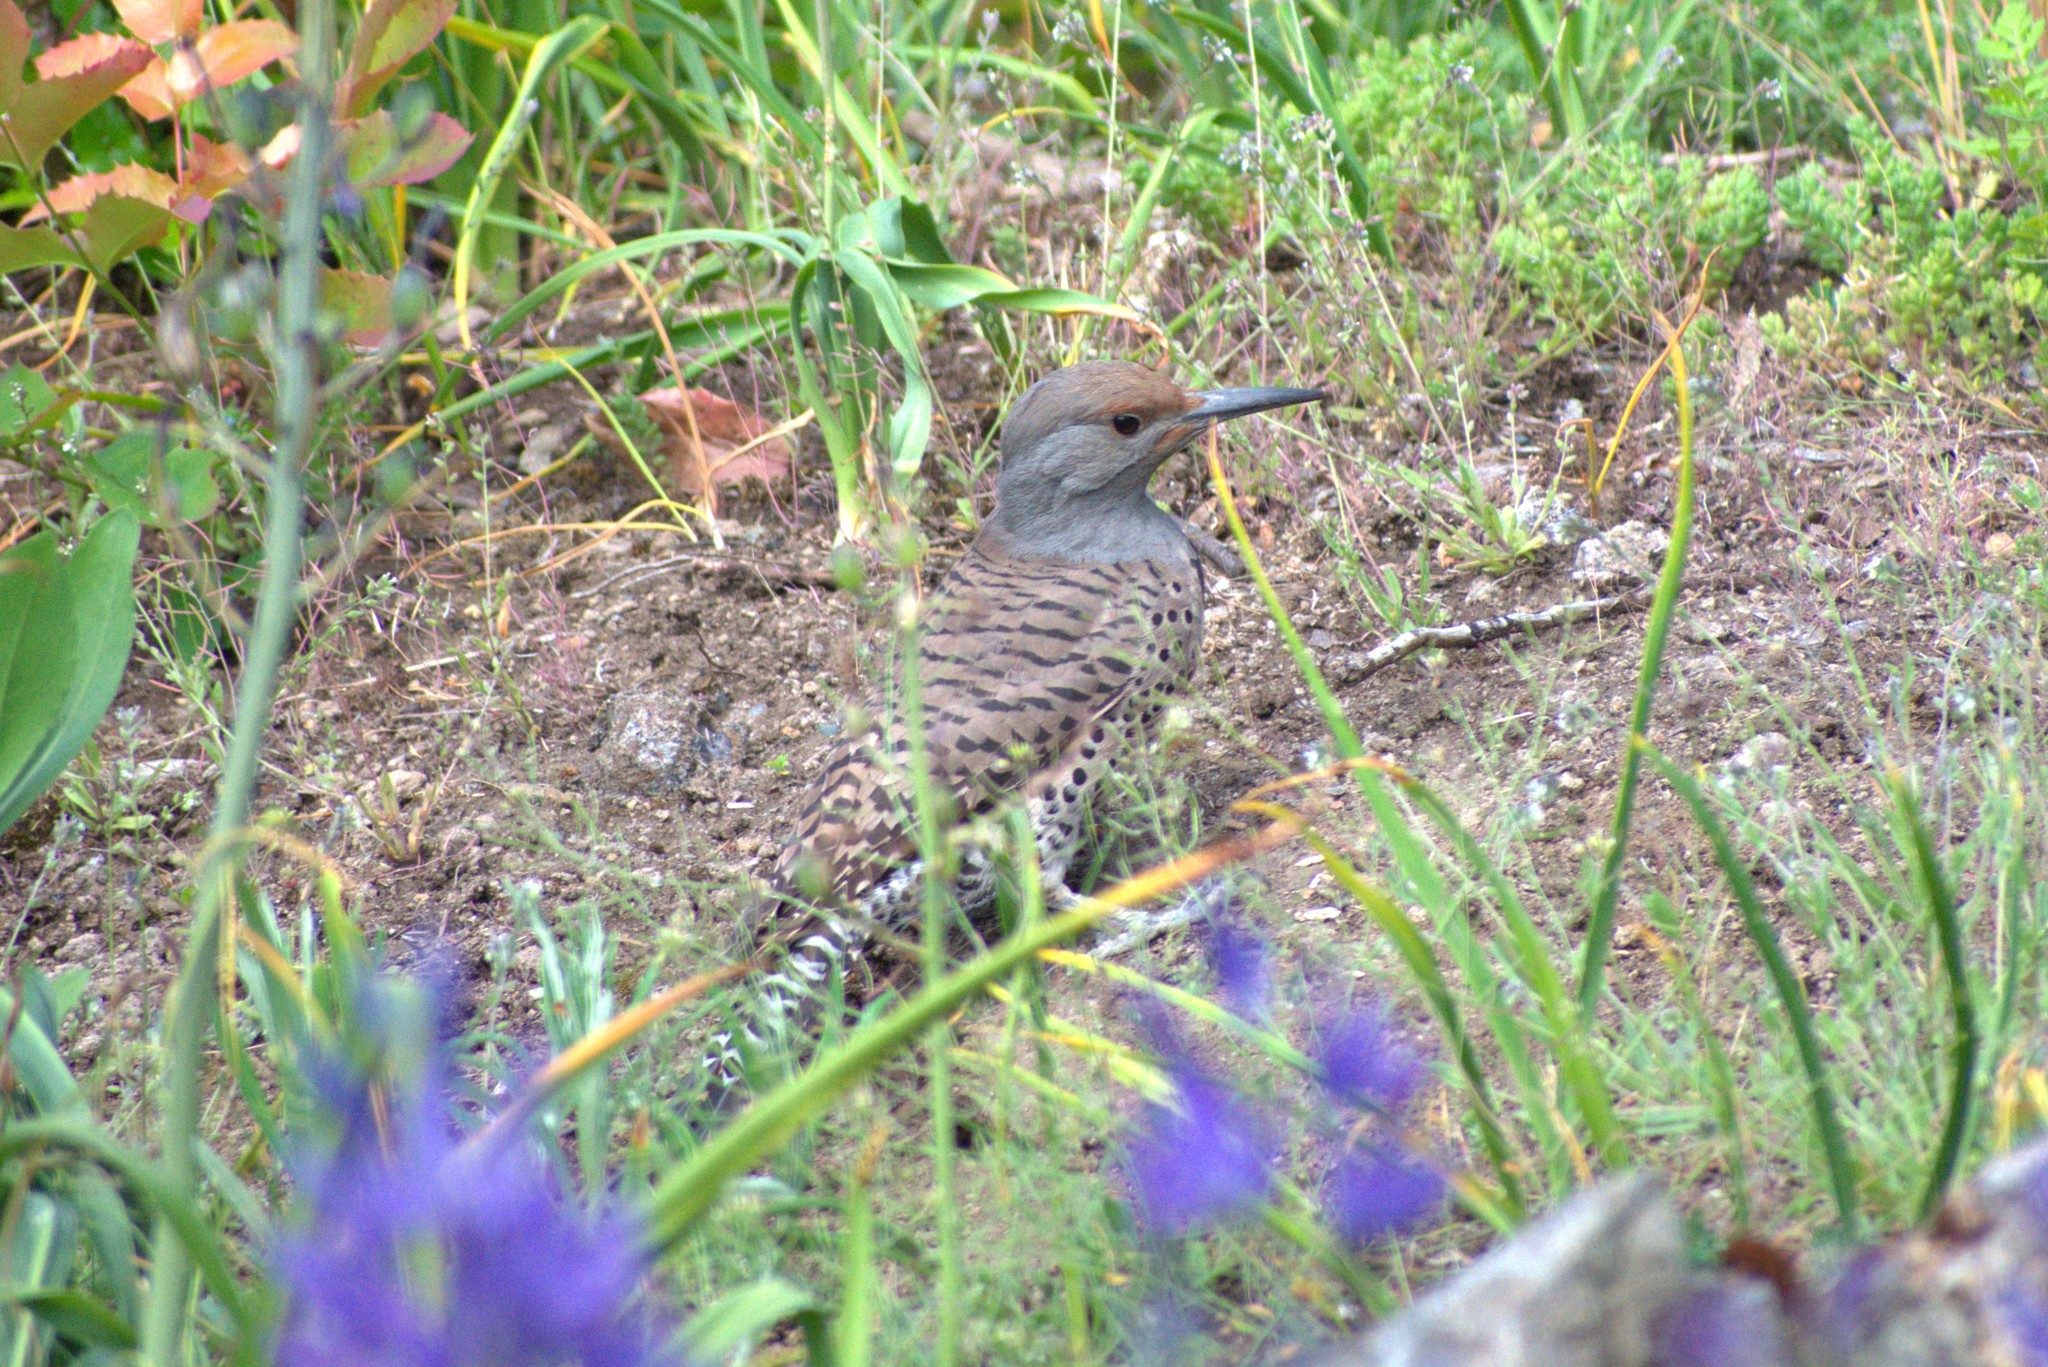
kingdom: Animalia
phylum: Chordata
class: Aves
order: Piciformes
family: Picidae
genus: Colaptes
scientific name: Colaptes auratus
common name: Northern flicker
